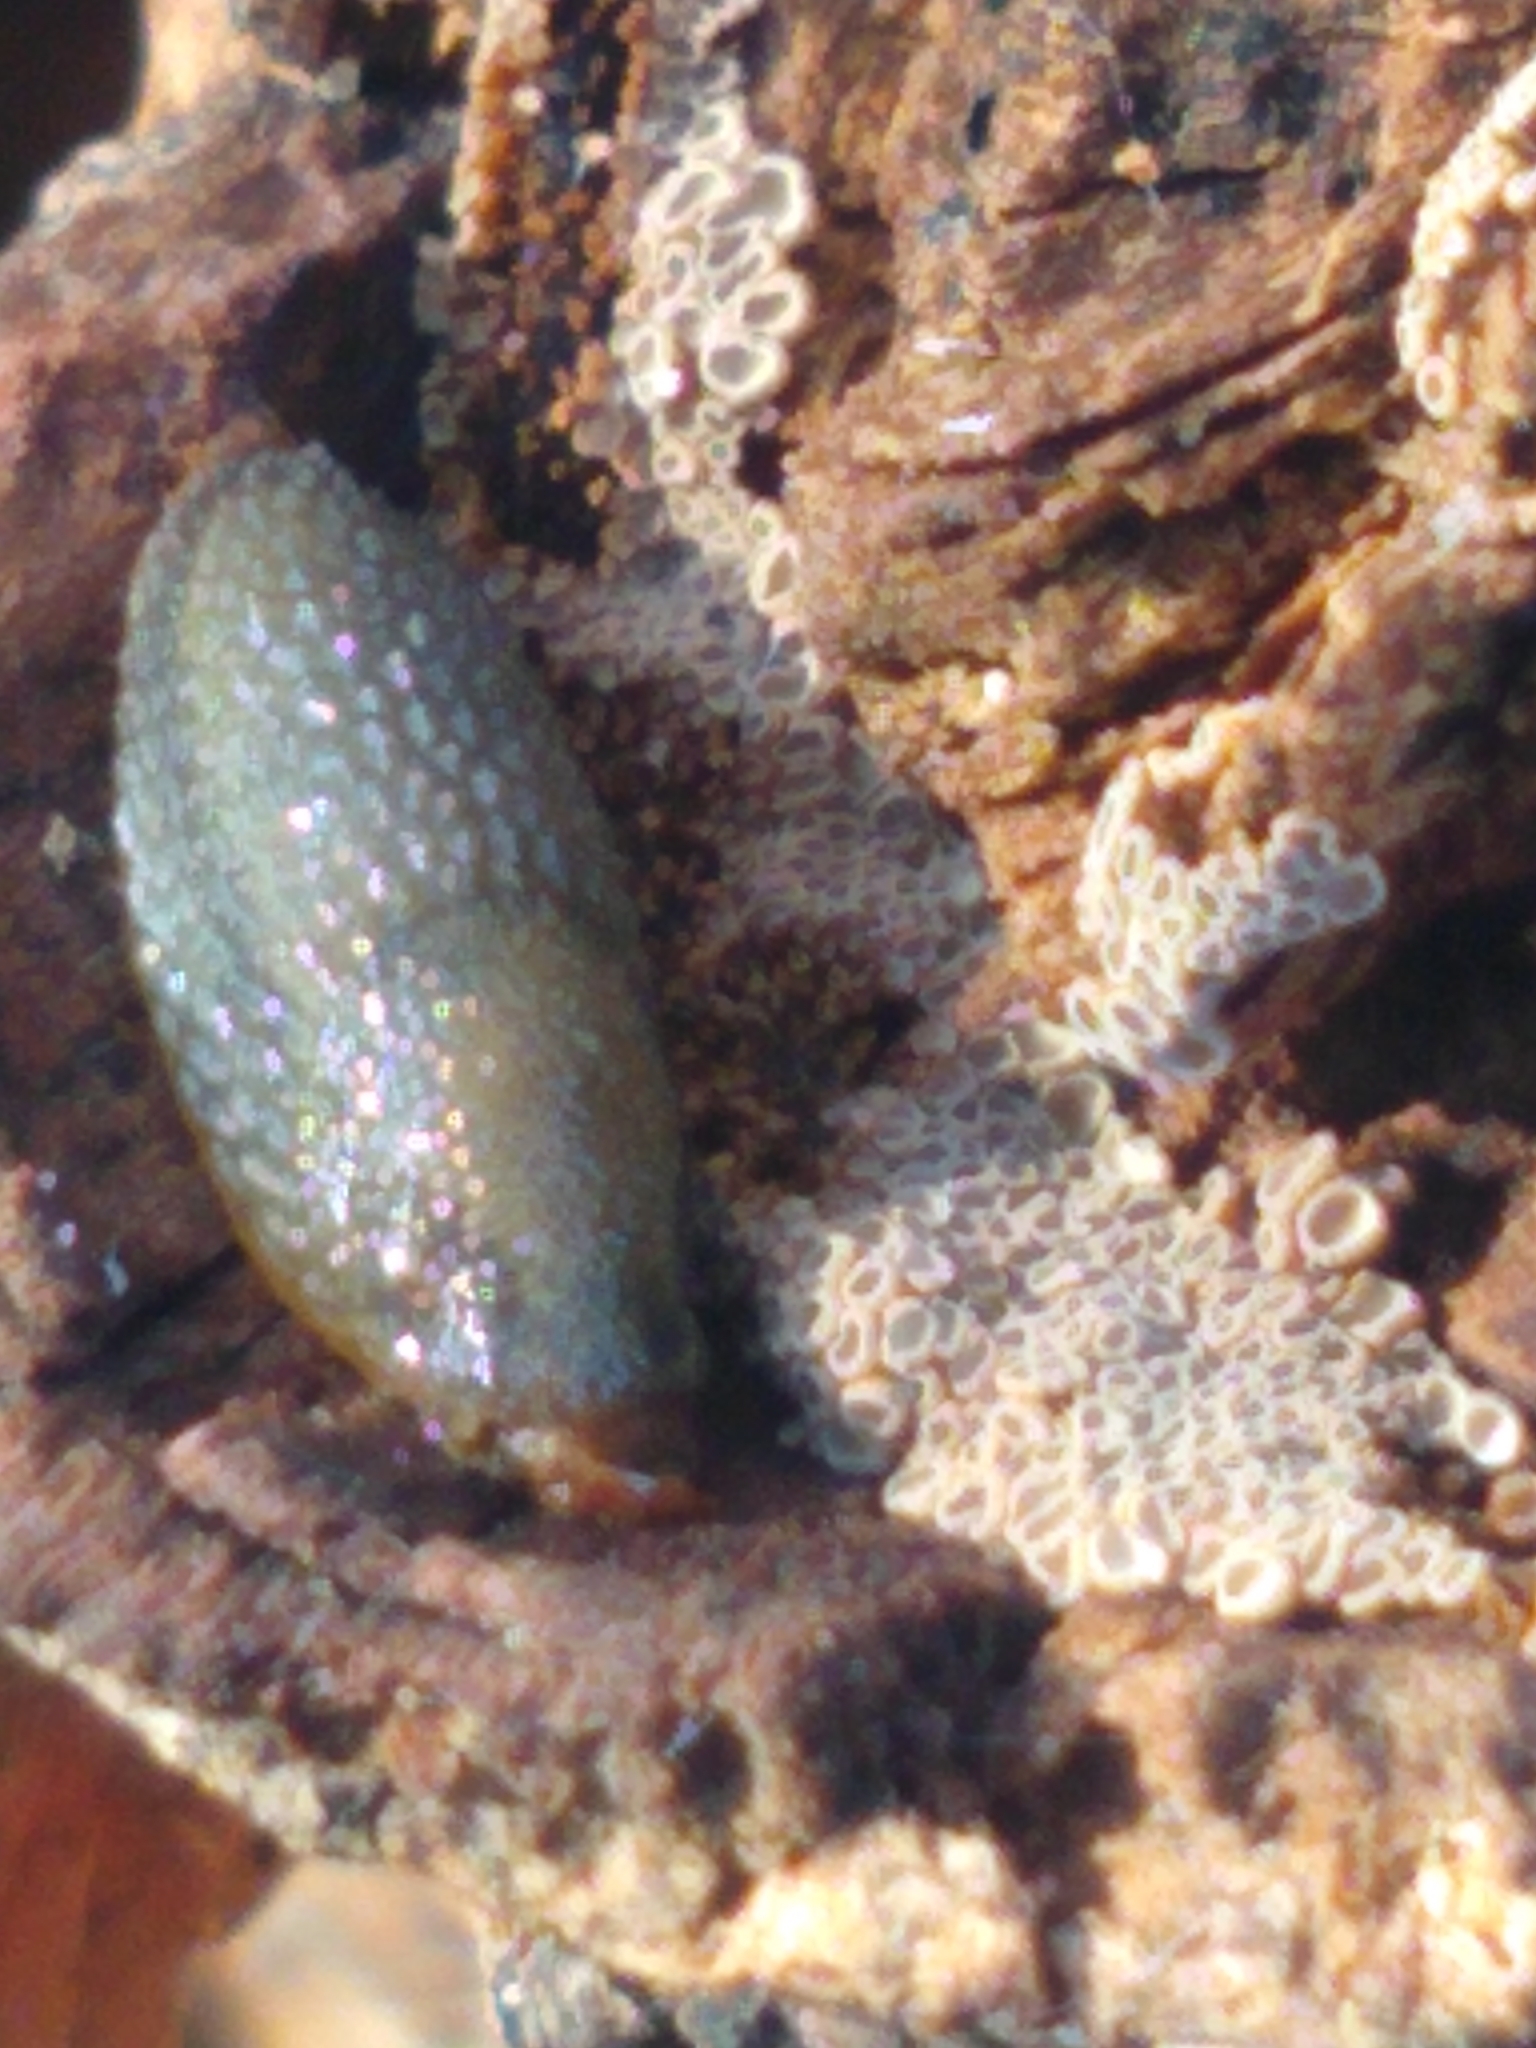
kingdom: Animalia
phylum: Mollusca
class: Gastropoda
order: Stylommatophora
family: Arionidae
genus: Arion
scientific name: Arion intermedius
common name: Hedgehog slug
